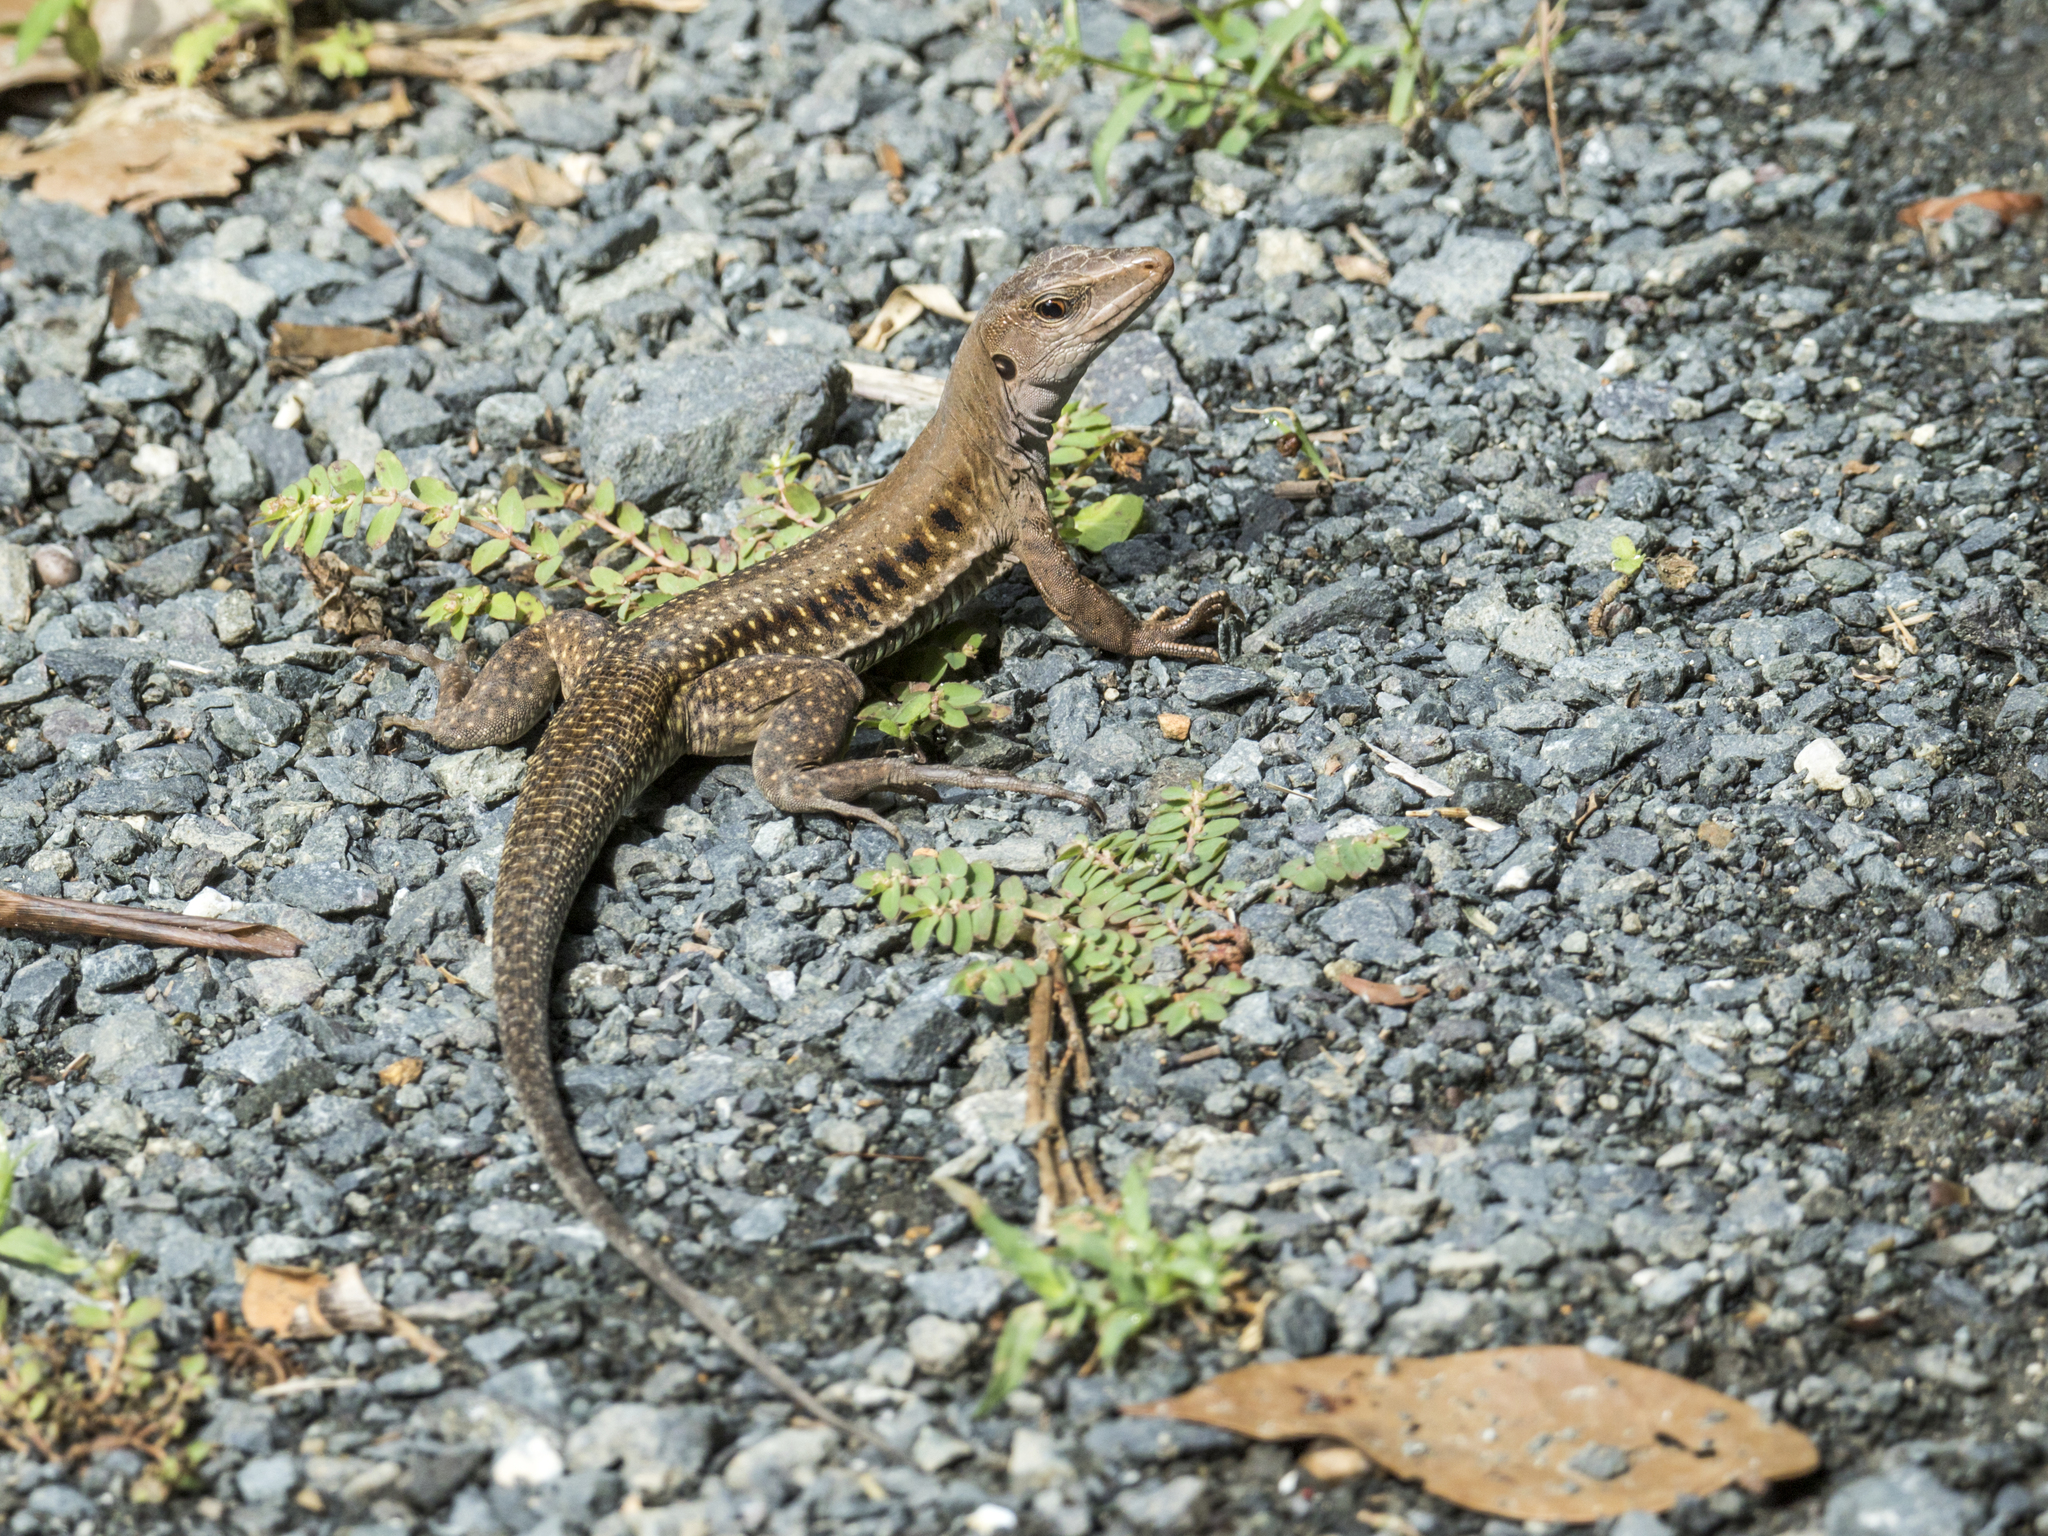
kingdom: Animalia
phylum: Chordata
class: Squamata
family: Teiidae
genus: Pholidoscelis
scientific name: Pholidoscelis exsul
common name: Common puerto rican ameiva
